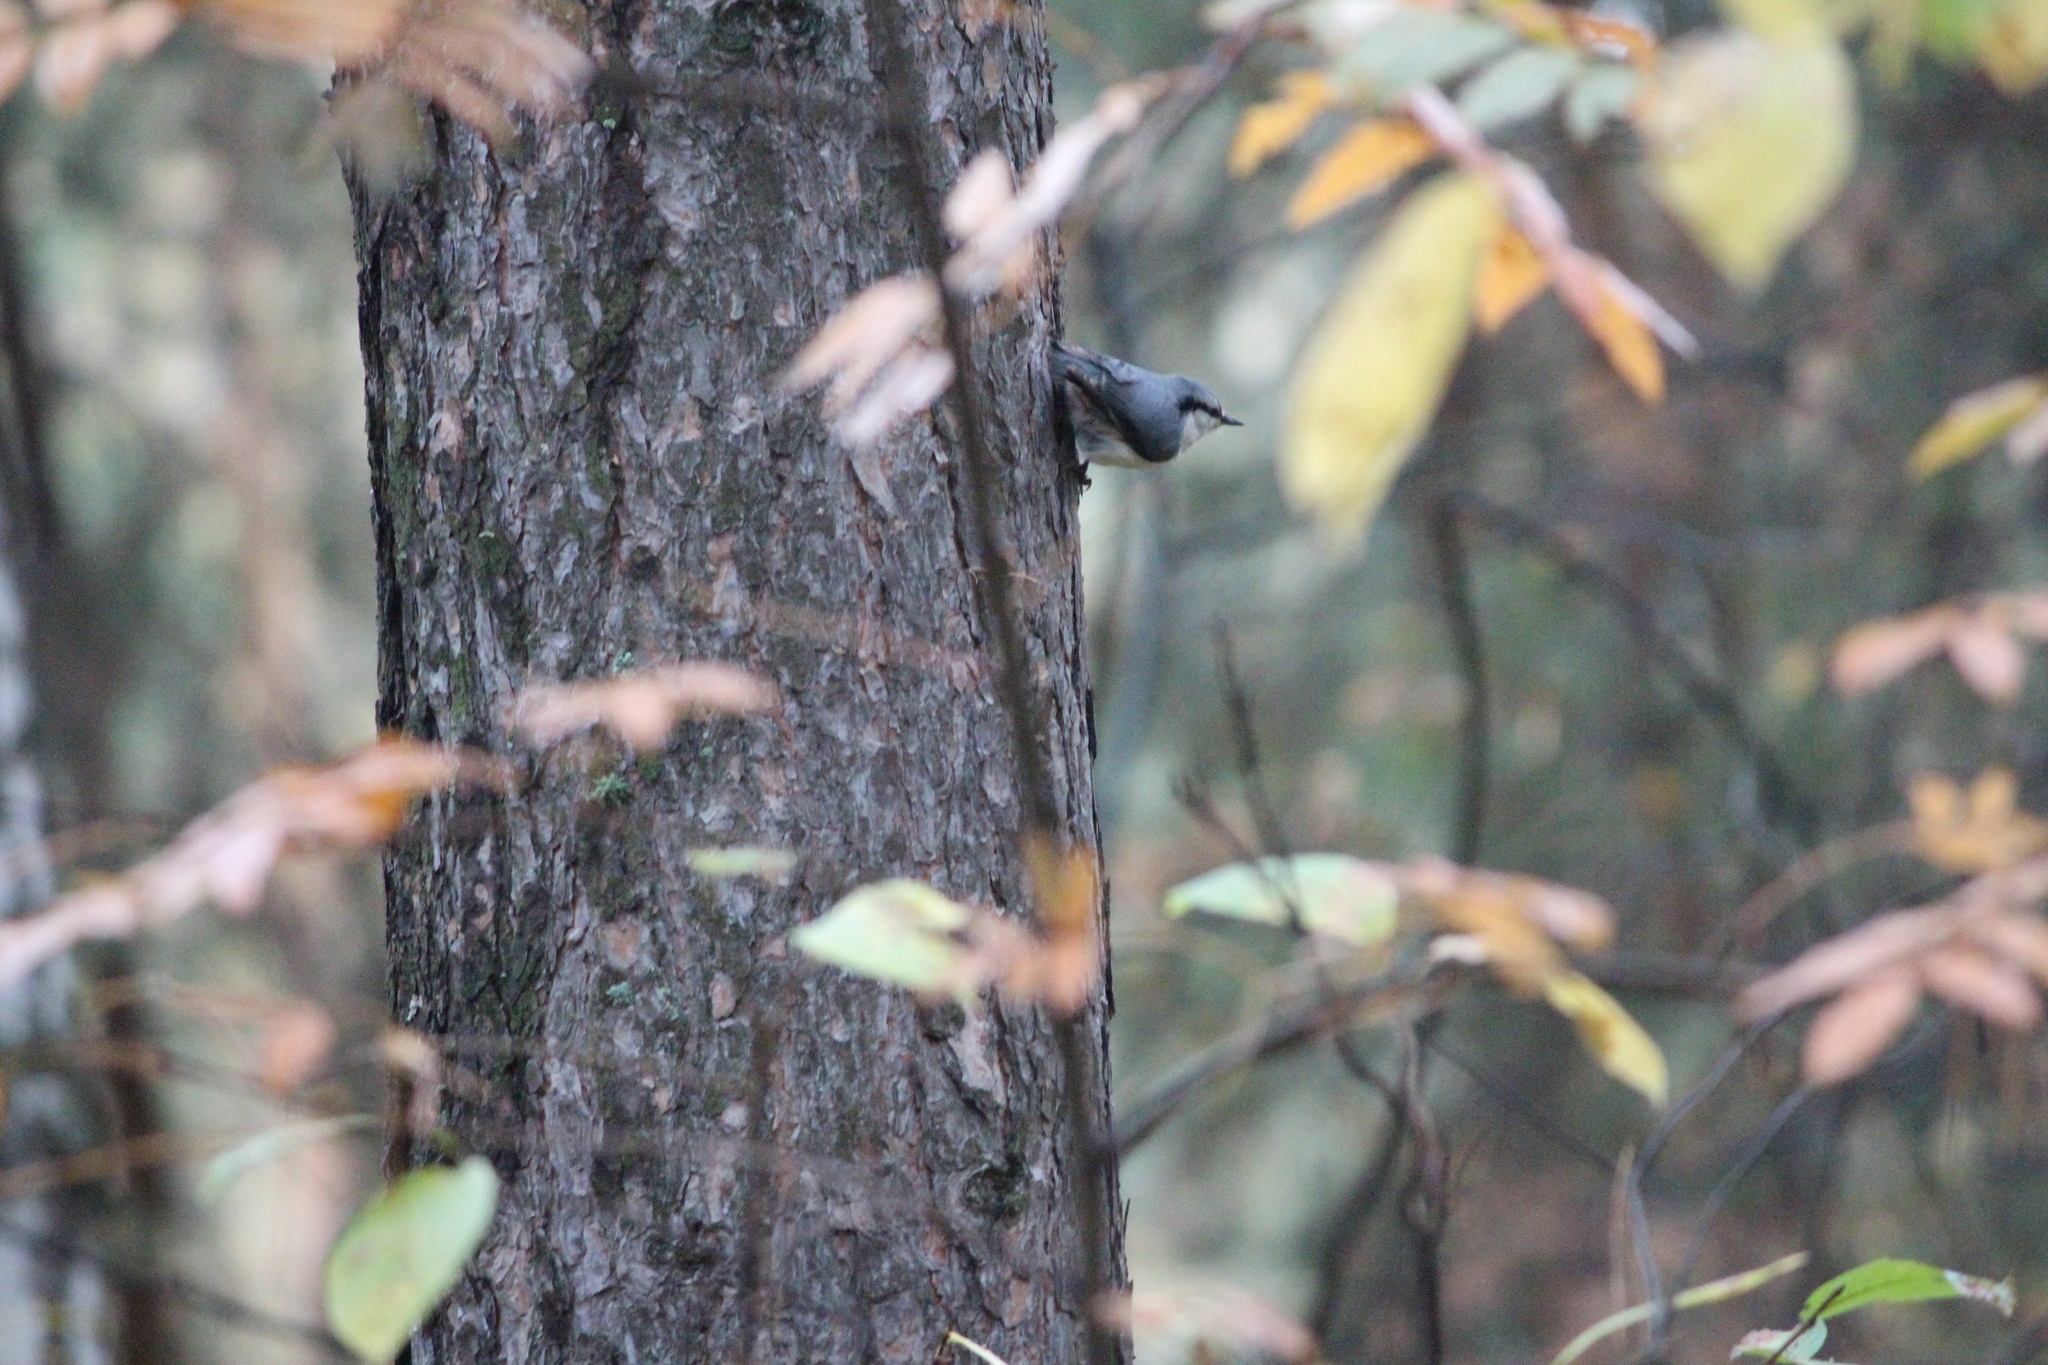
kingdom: Animalia
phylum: Chordata
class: Aves
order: Passeriformes
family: Sittidae
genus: Sitta
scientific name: Sitta europaea
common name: Eurasian nuthatch
